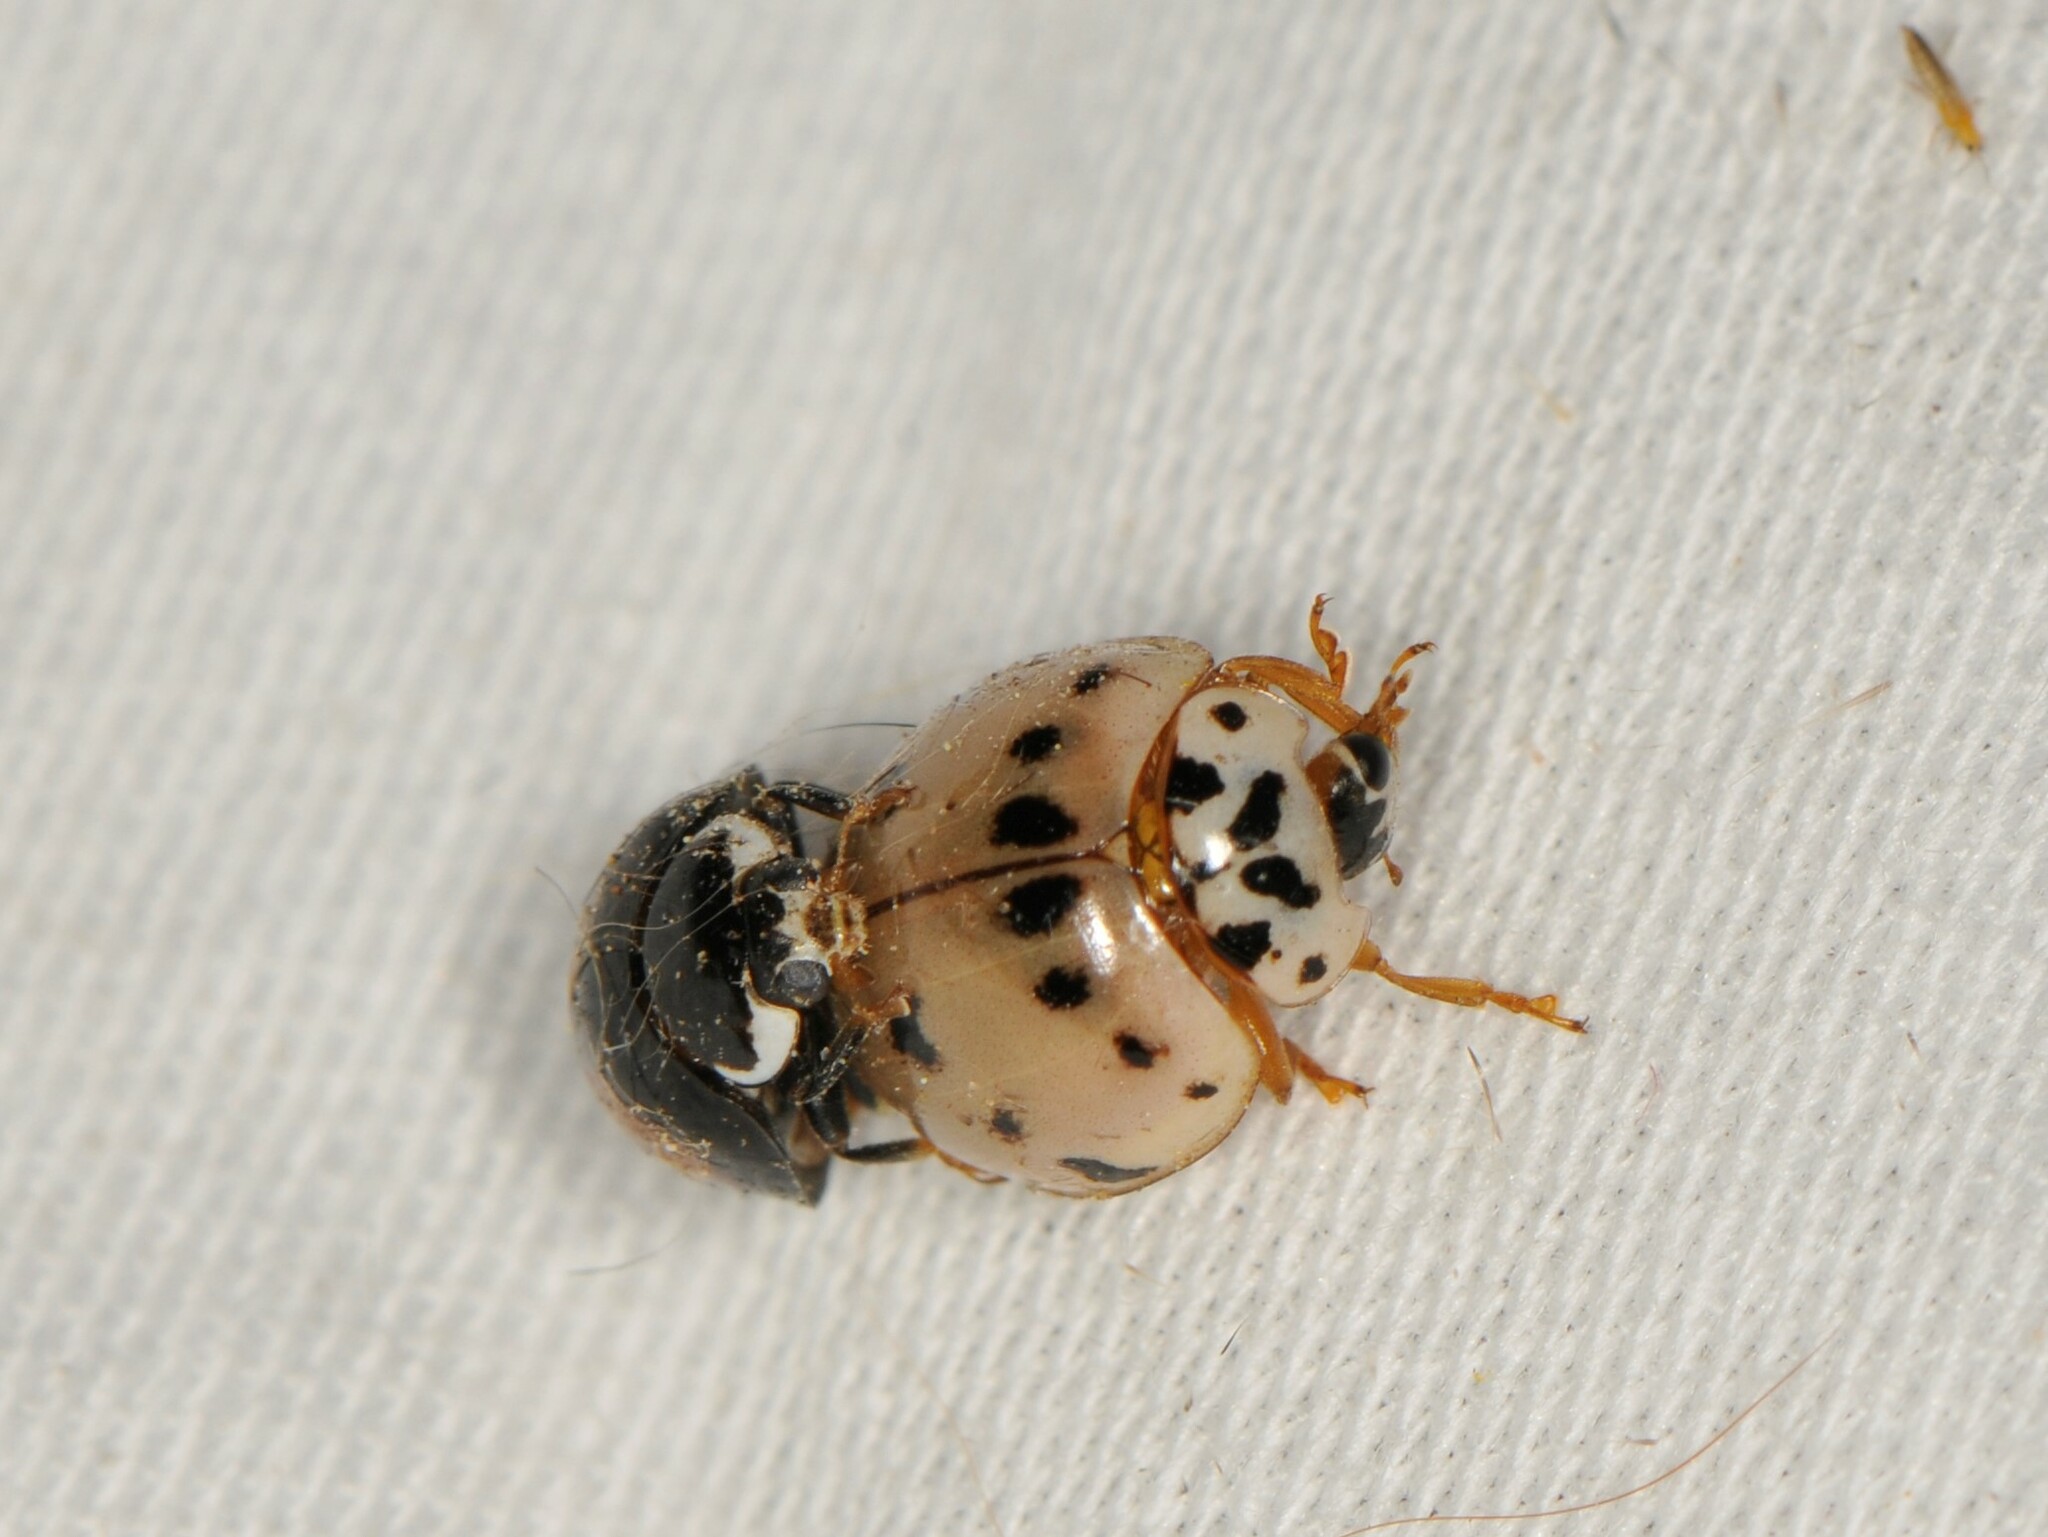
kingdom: Animalia
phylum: Arthropoda
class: Insecta
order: Coleoptera
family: Coccinellidae
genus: Olla
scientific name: Olla v-nigrum
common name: Ashy gray lady beetle
